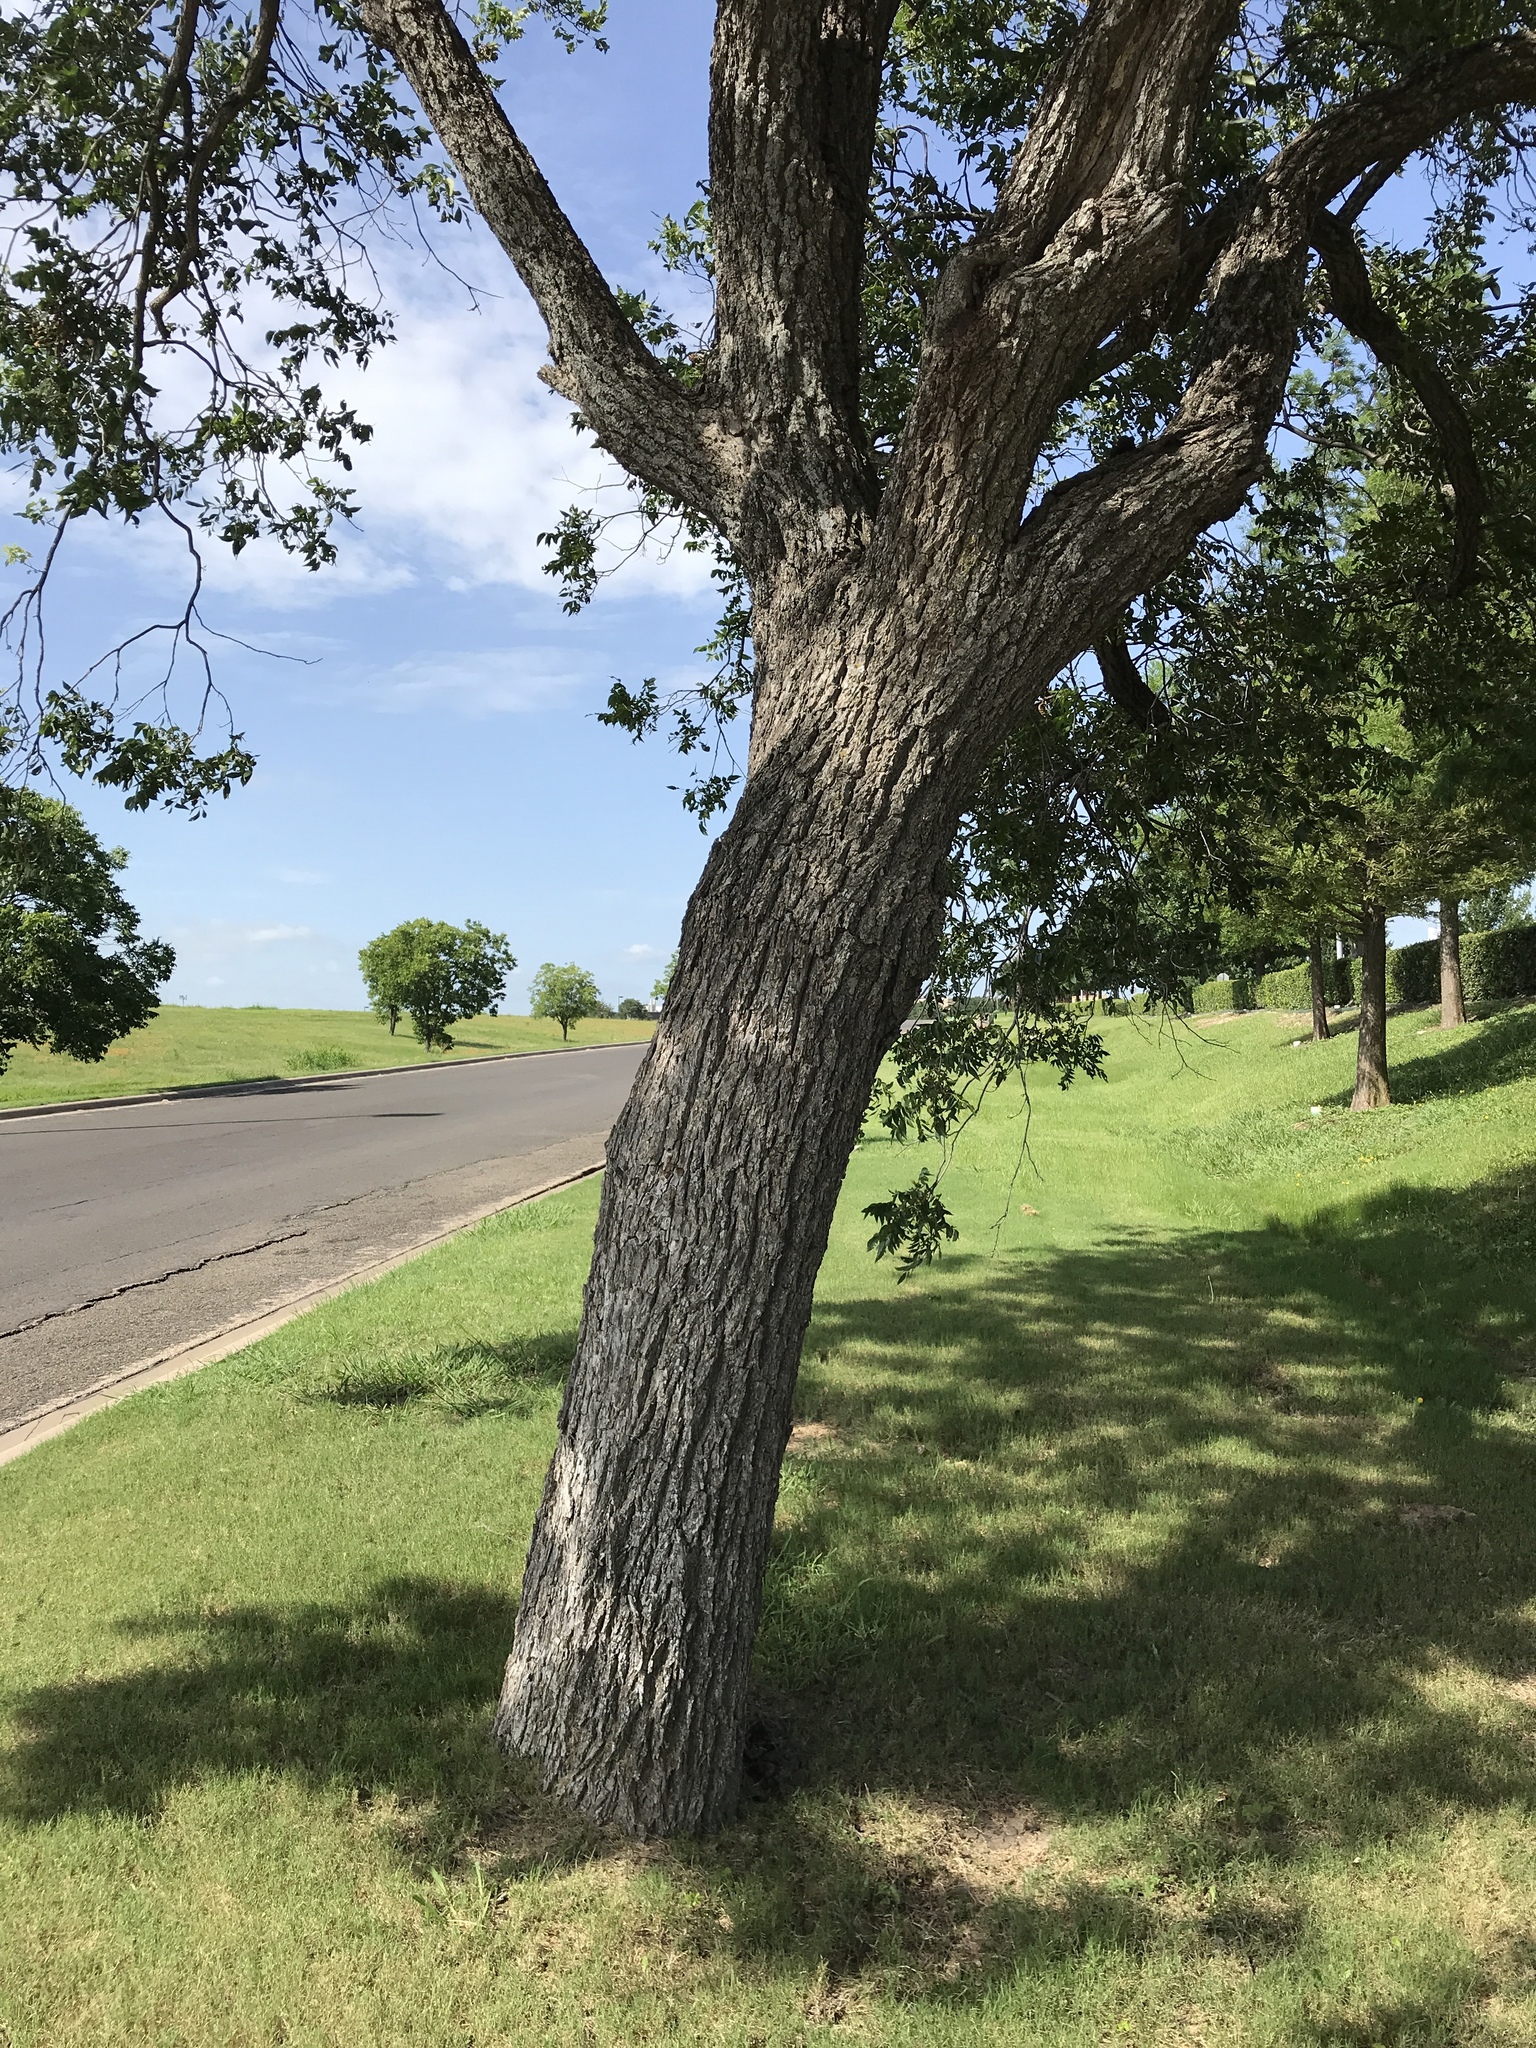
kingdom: Plantae
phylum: Tracheophyta
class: Magnoliopsida
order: Fagales
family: Juglandaceae
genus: Carya
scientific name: Carya illinoinensis
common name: Pecan
